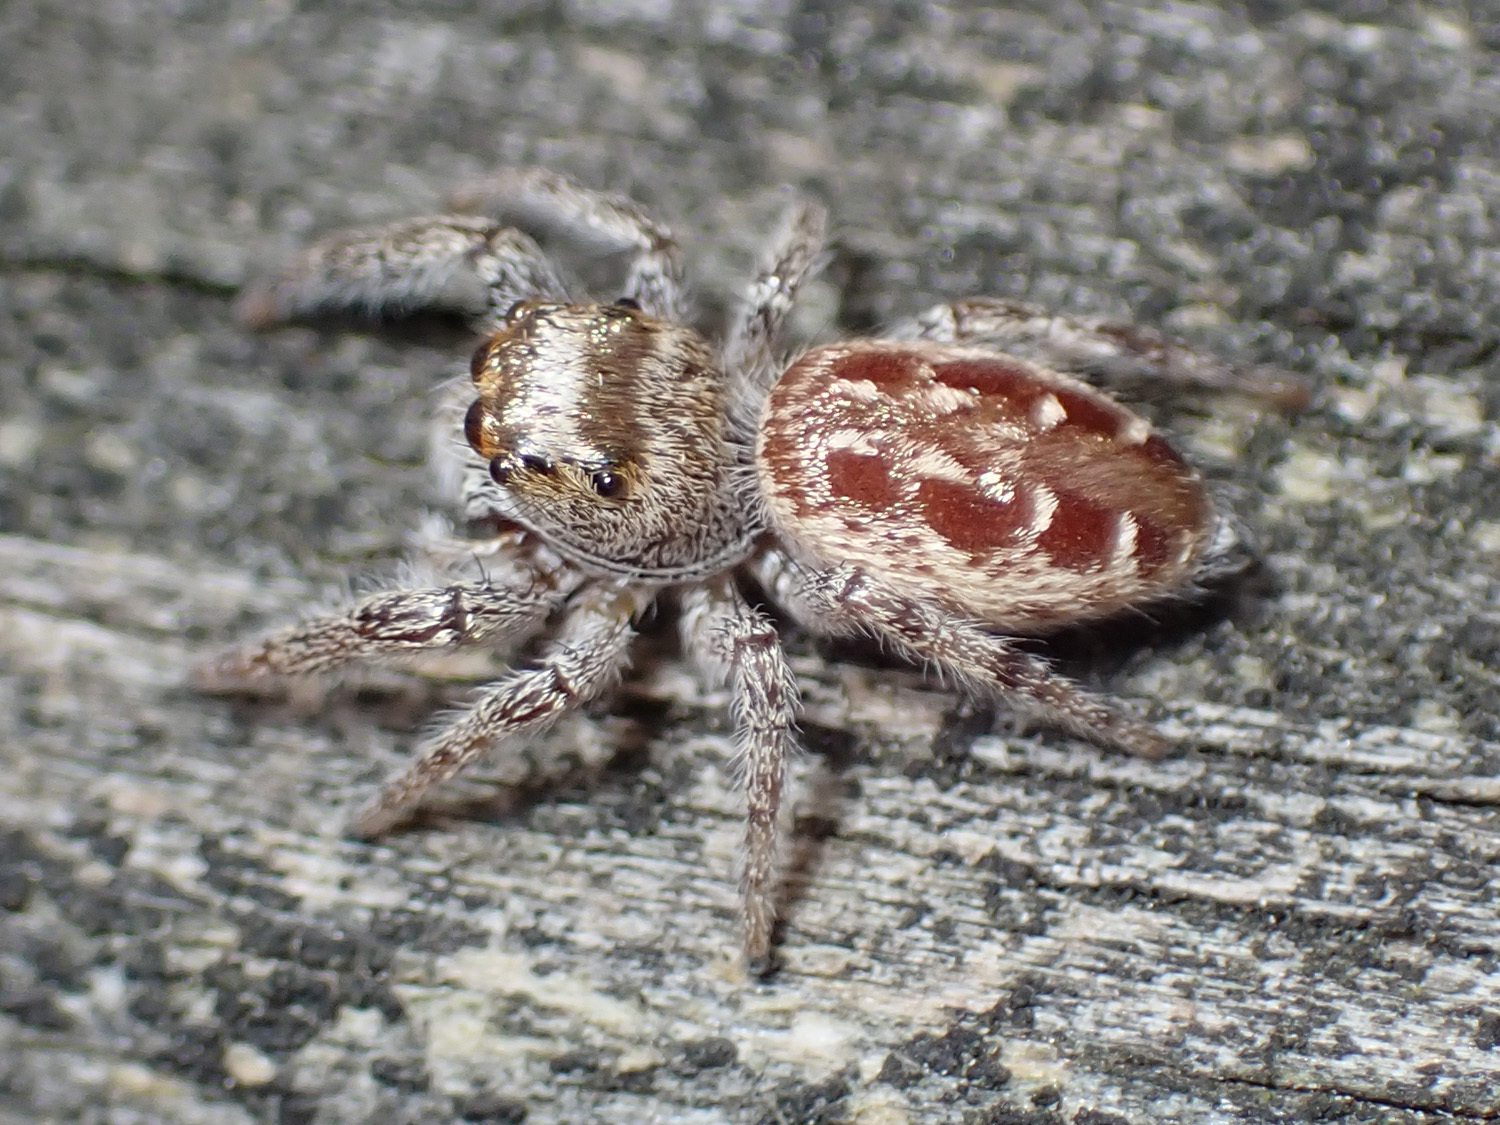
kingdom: Animalia
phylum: Arthropoda
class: Arachnida
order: Araneae
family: Salticidae
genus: Eris
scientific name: Eris militaris
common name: Bronze jumper
